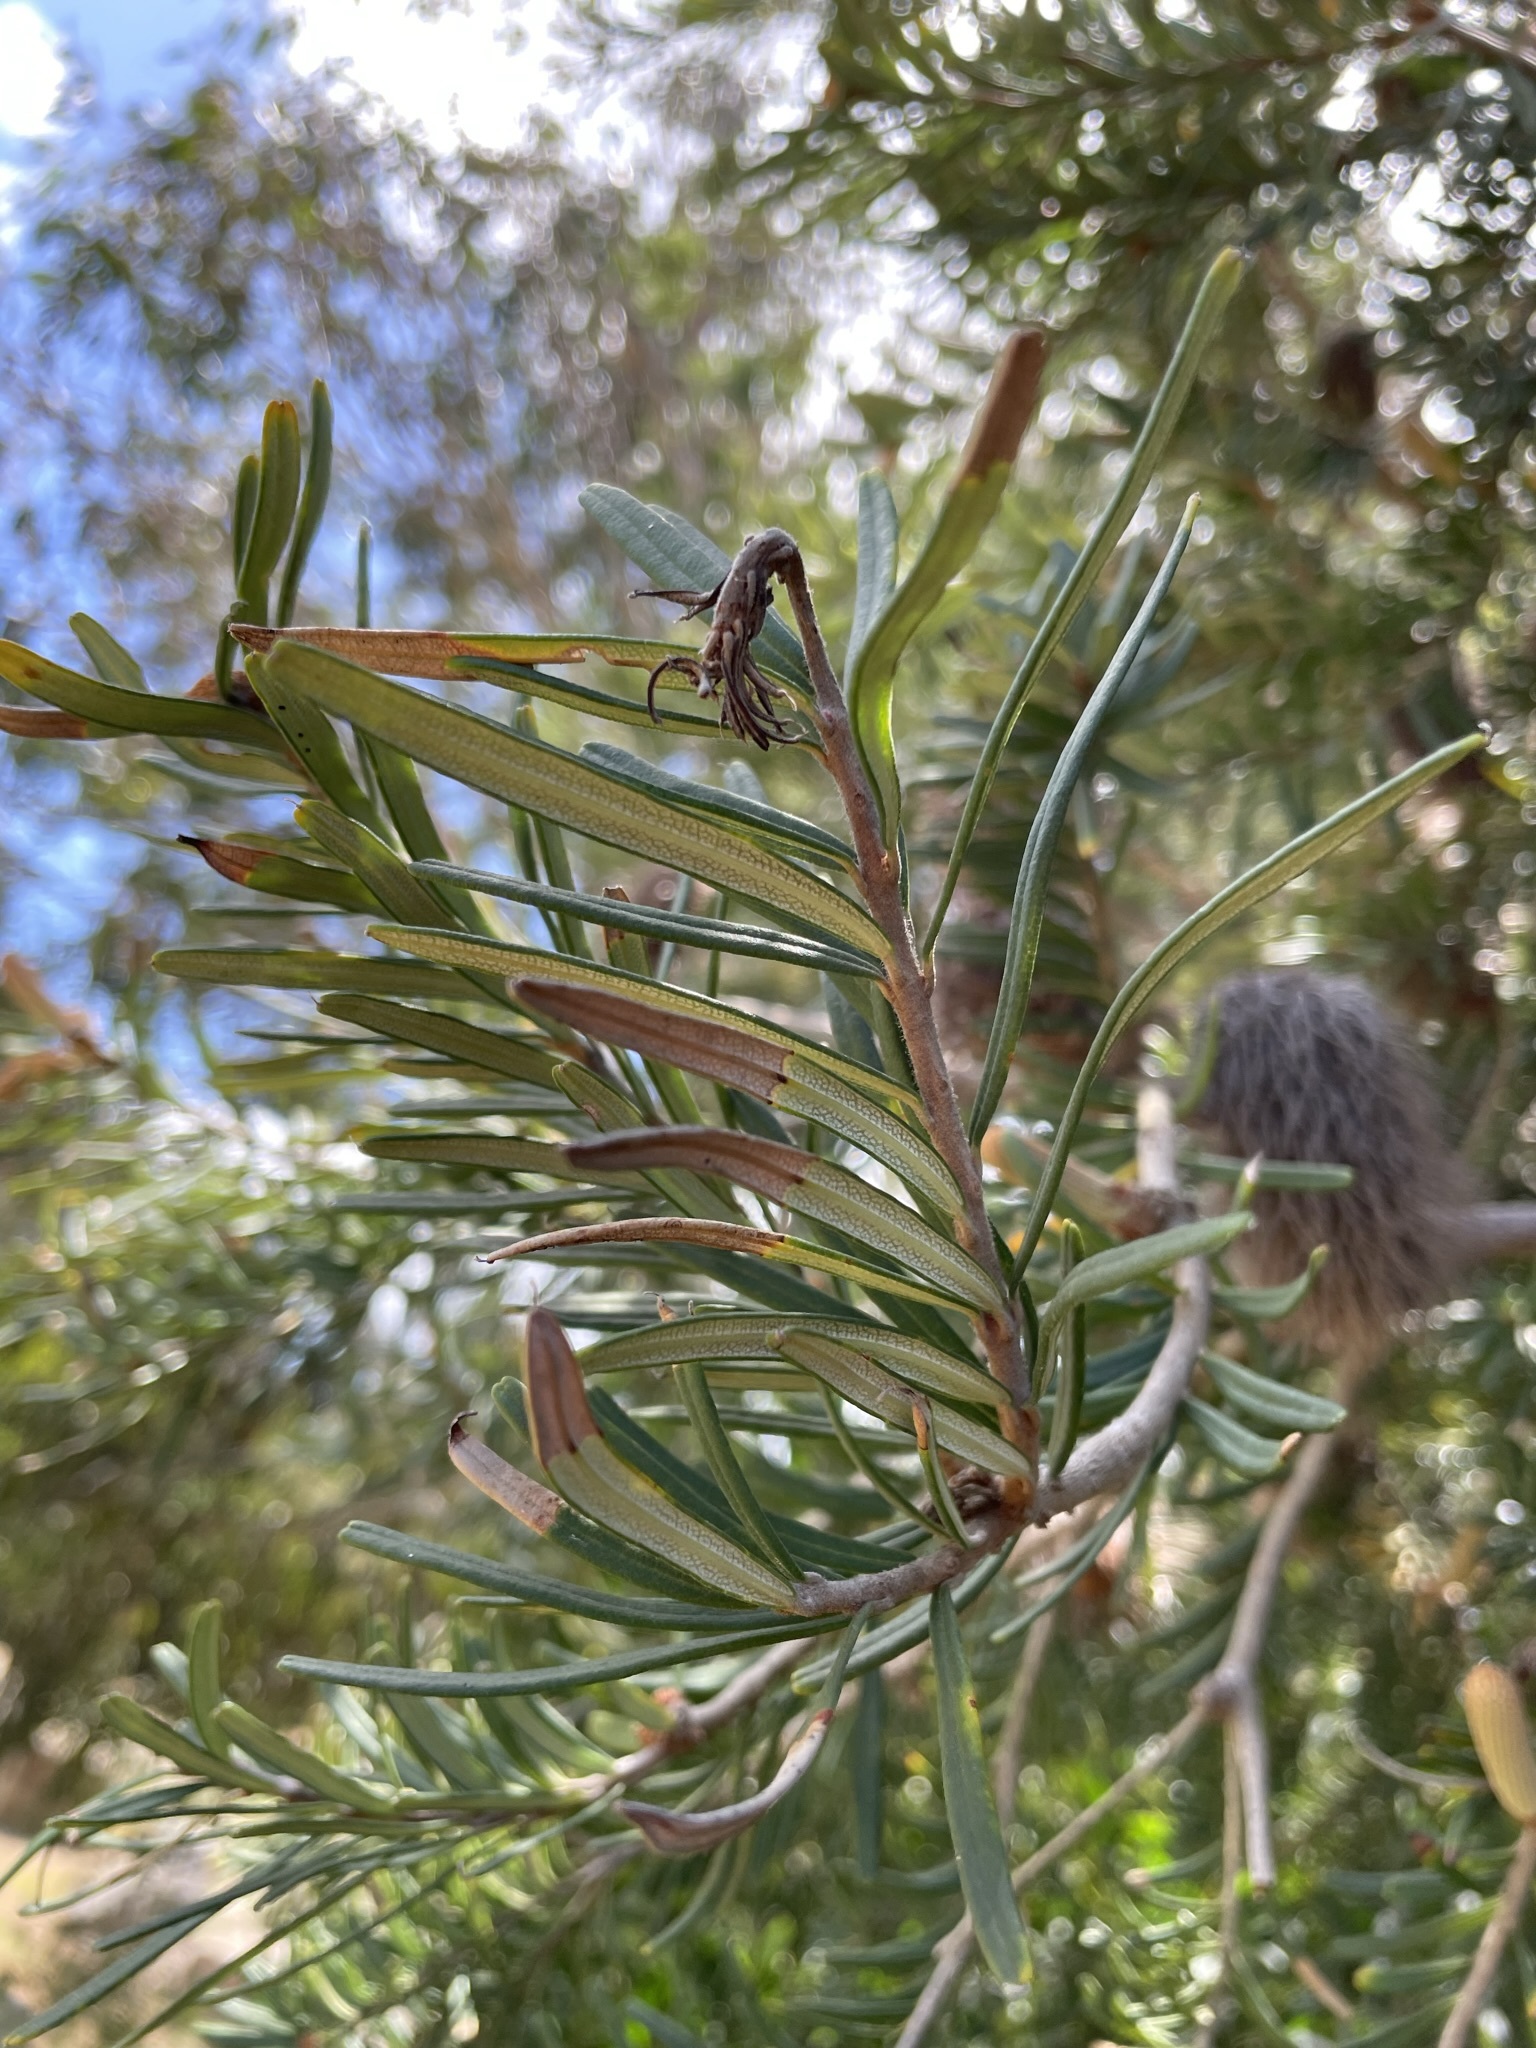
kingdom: Plantae
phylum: Tracheophyta
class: Magnoliopsida
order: Proteales
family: Proteaceae
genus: Banksia
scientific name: Banksia marginata
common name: Silver banksia
